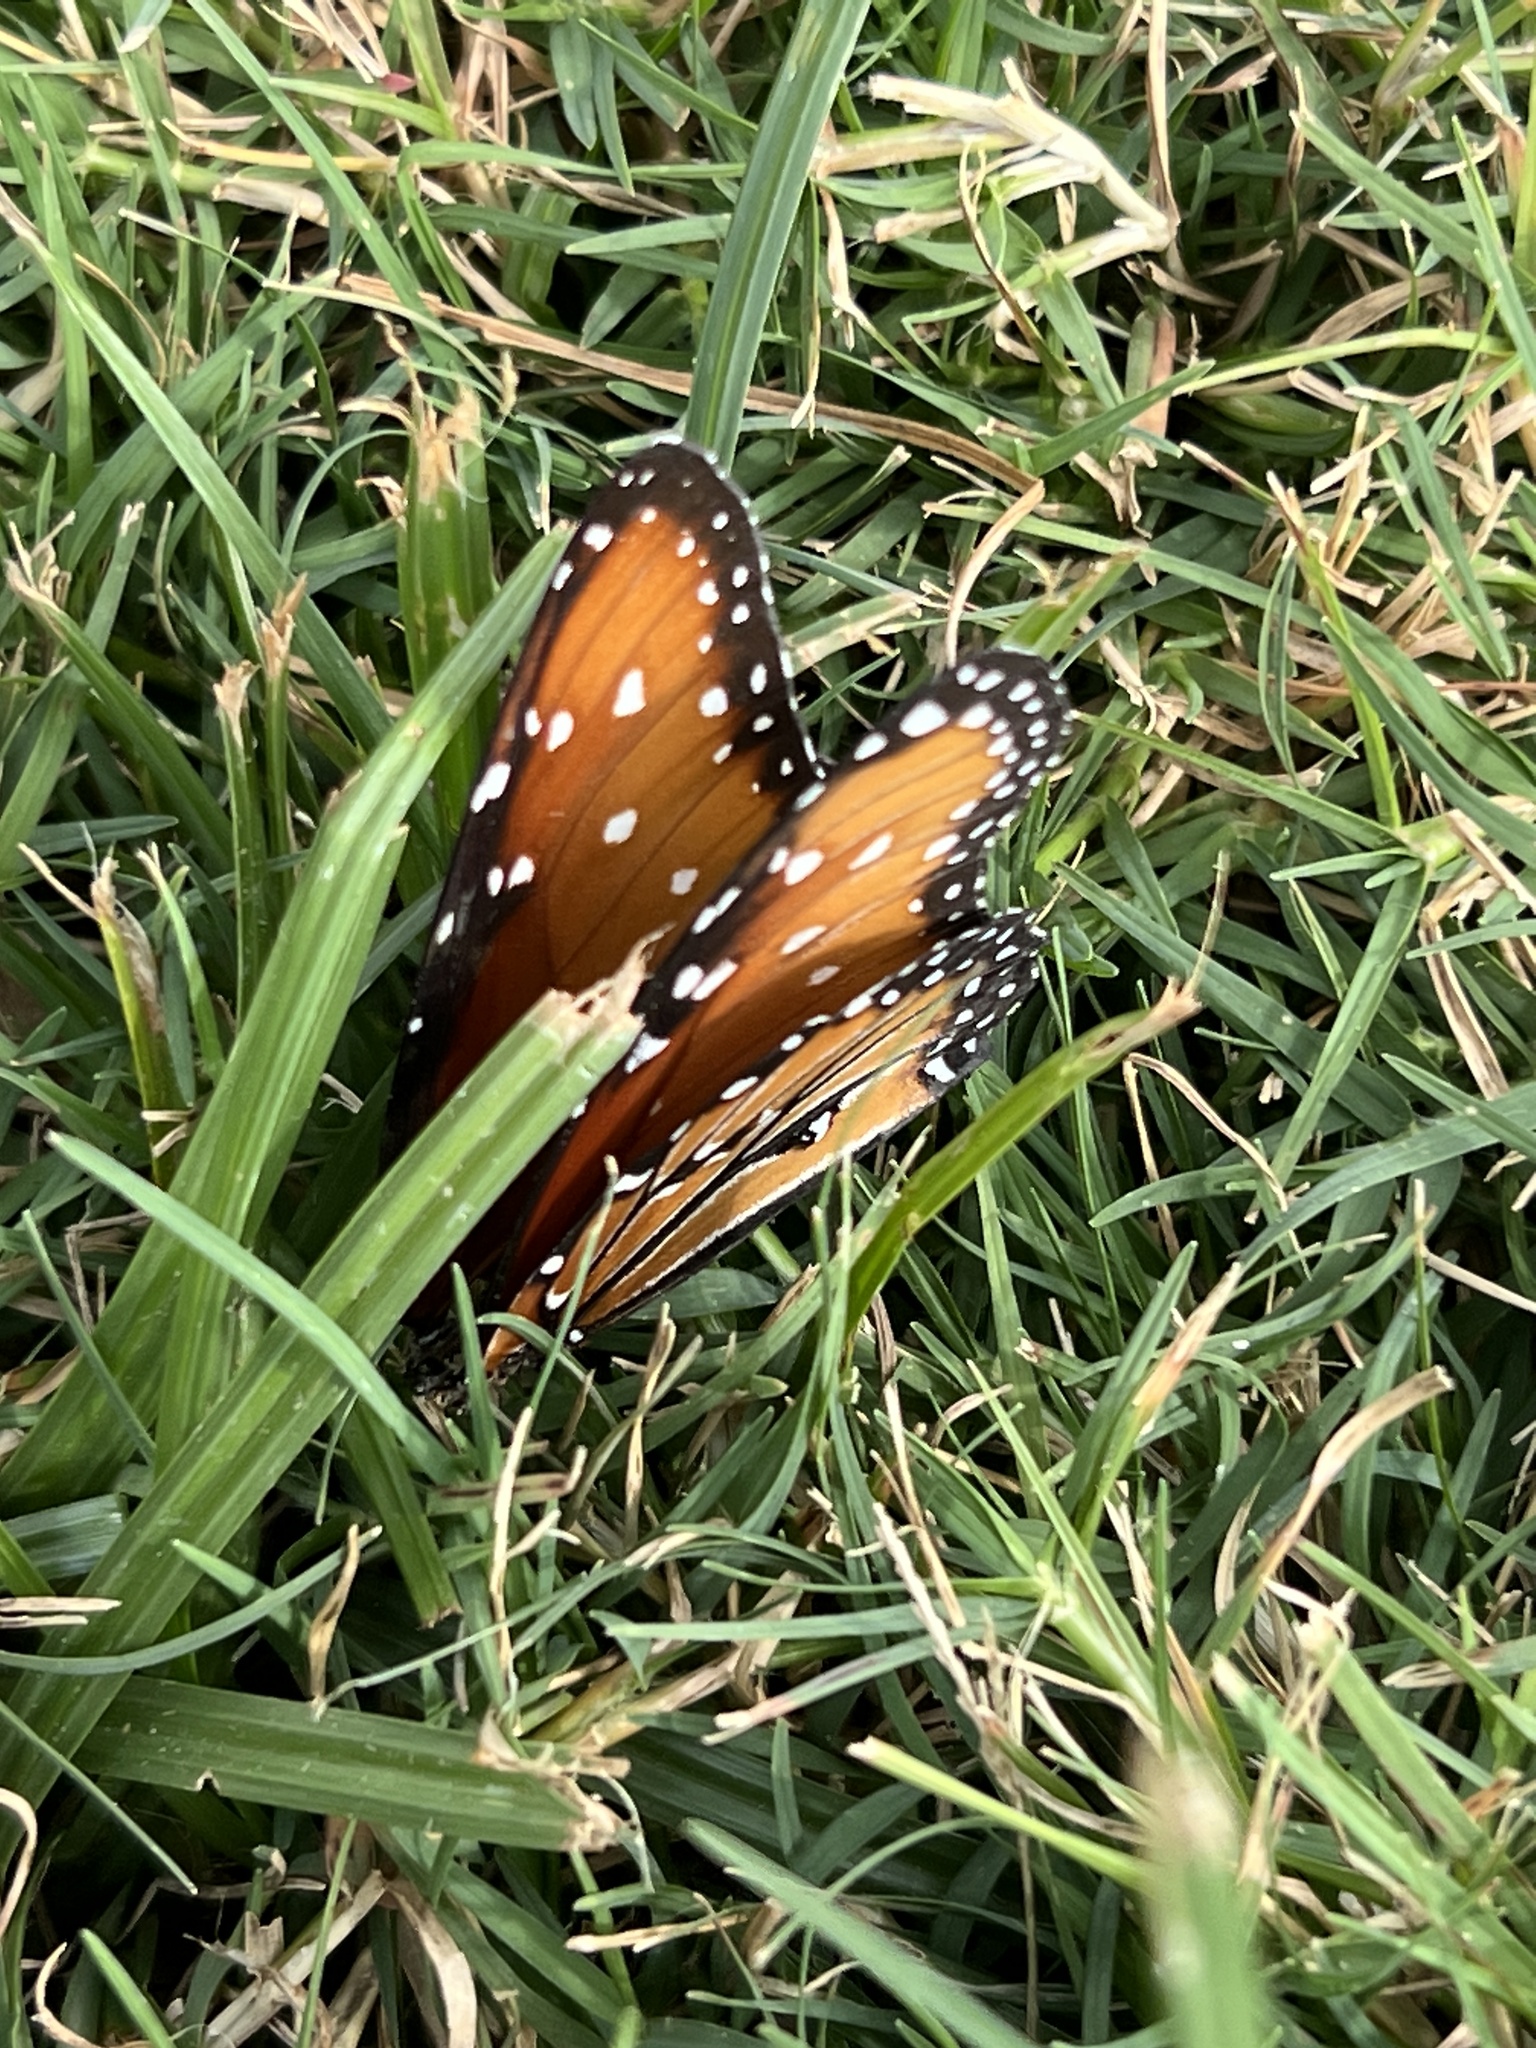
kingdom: Animalia
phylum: Arthropoda
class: Insecta
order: Lepidoptera
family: Nymphalidae
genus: Danaus
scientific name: Danaus gilippus
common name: Queen
